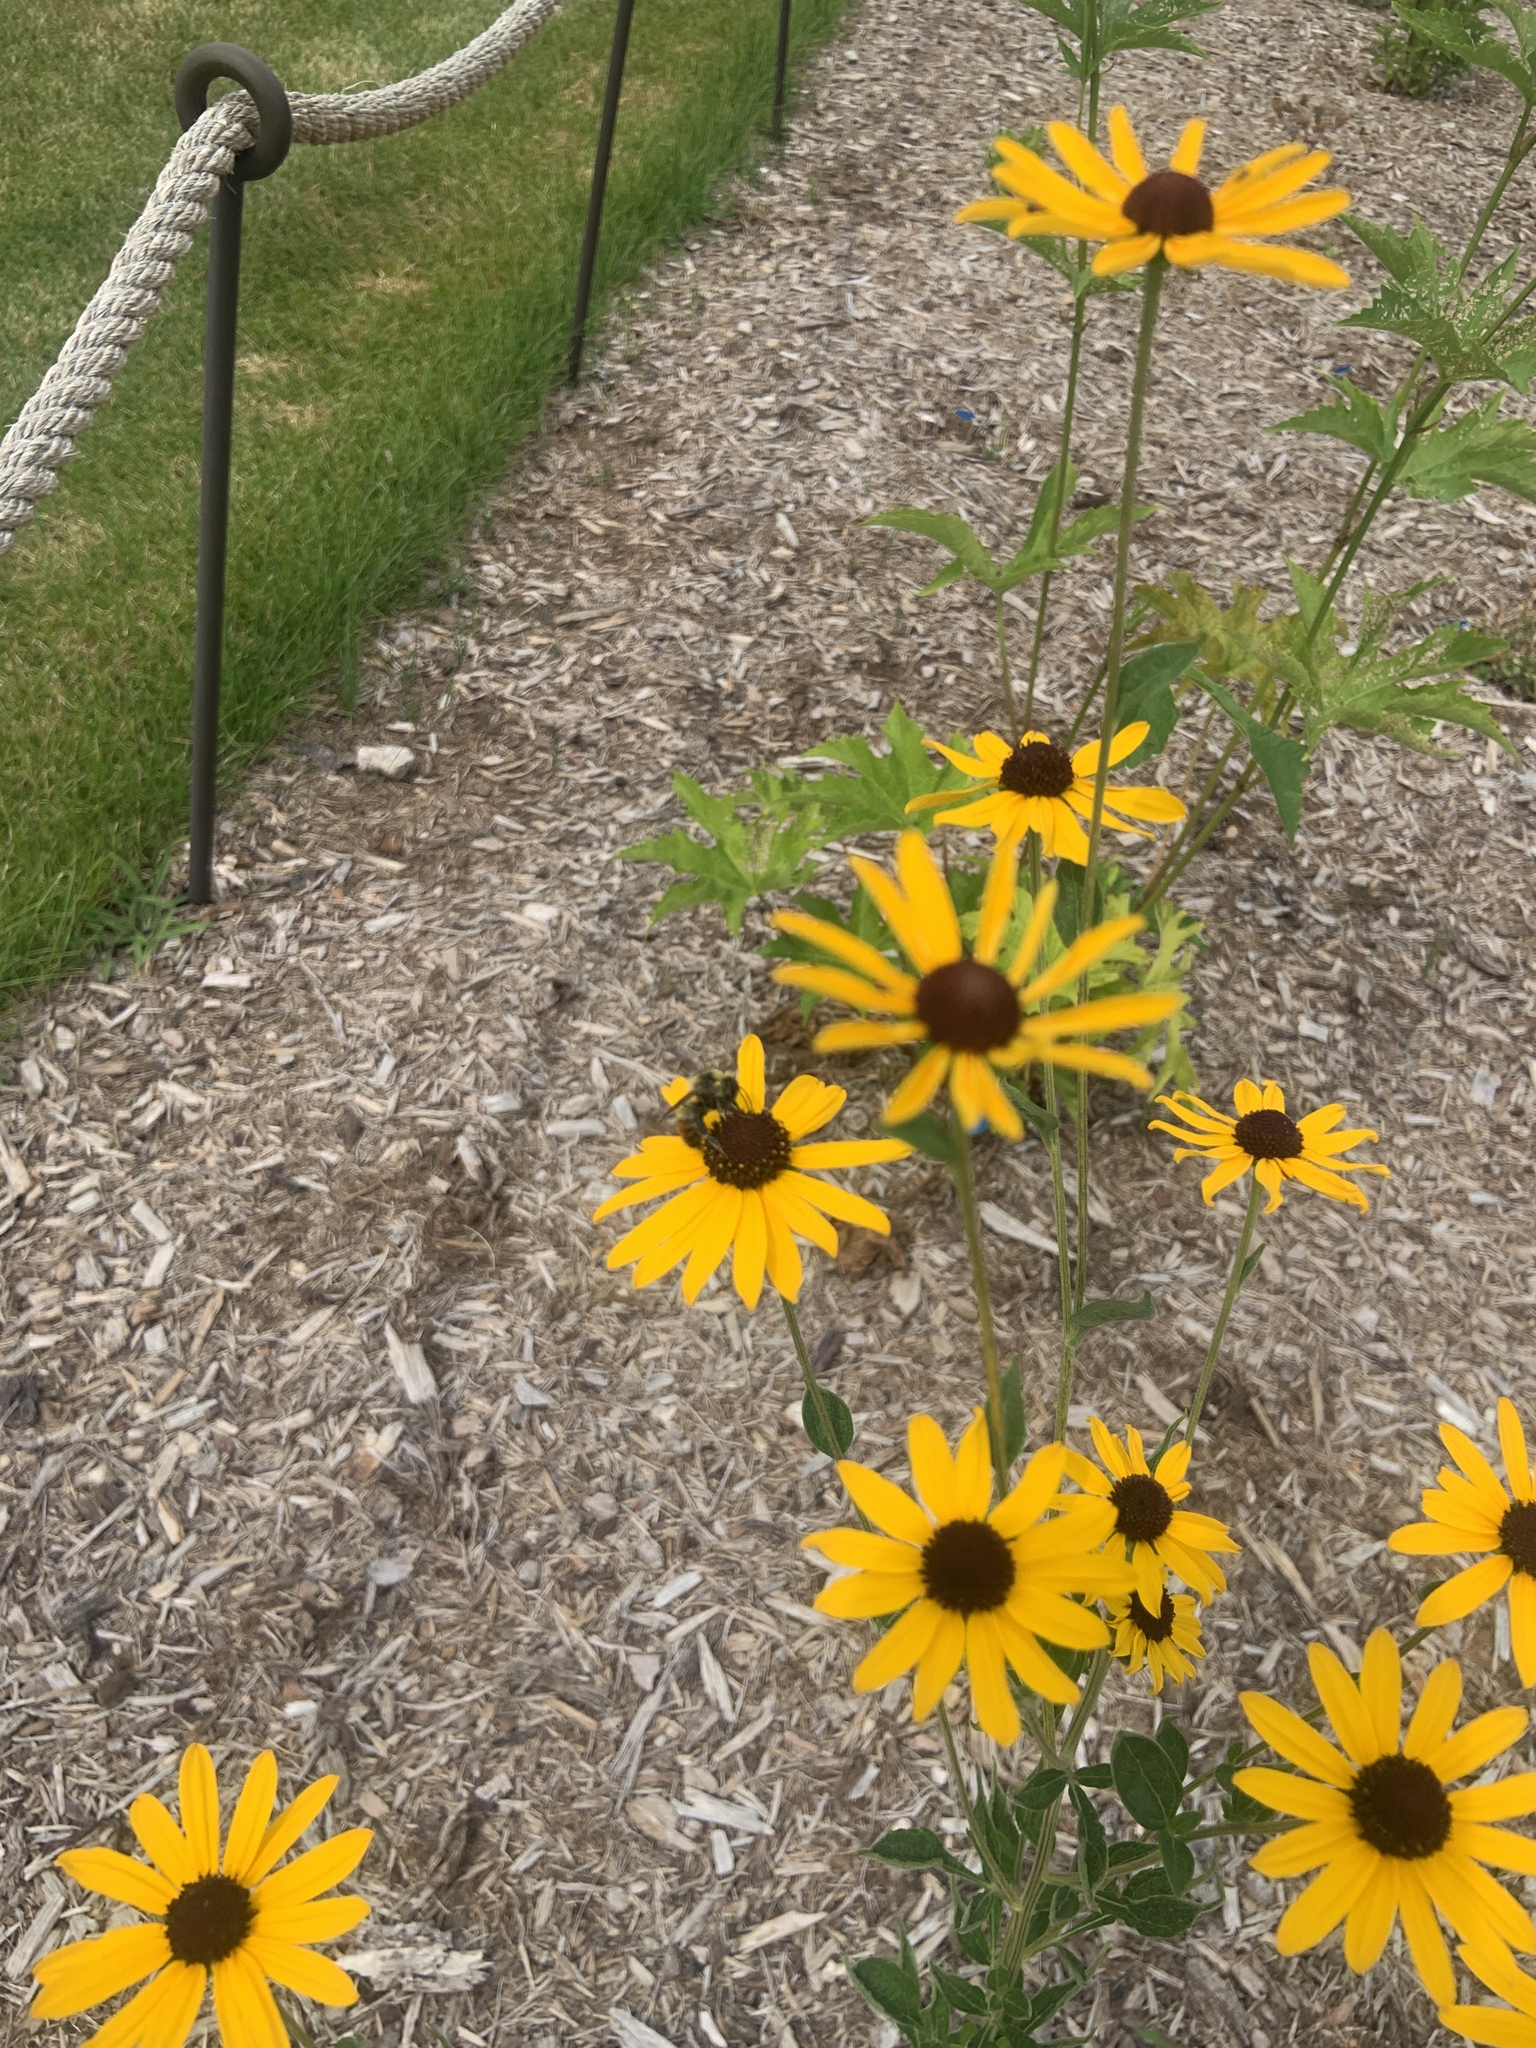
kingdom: Animalia
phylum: Arthropoda
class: Insecta
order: Hymenoptera
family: Apidae
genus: Bombus
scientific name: Bombus rufocinctus
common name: Red-belted bumble bee
